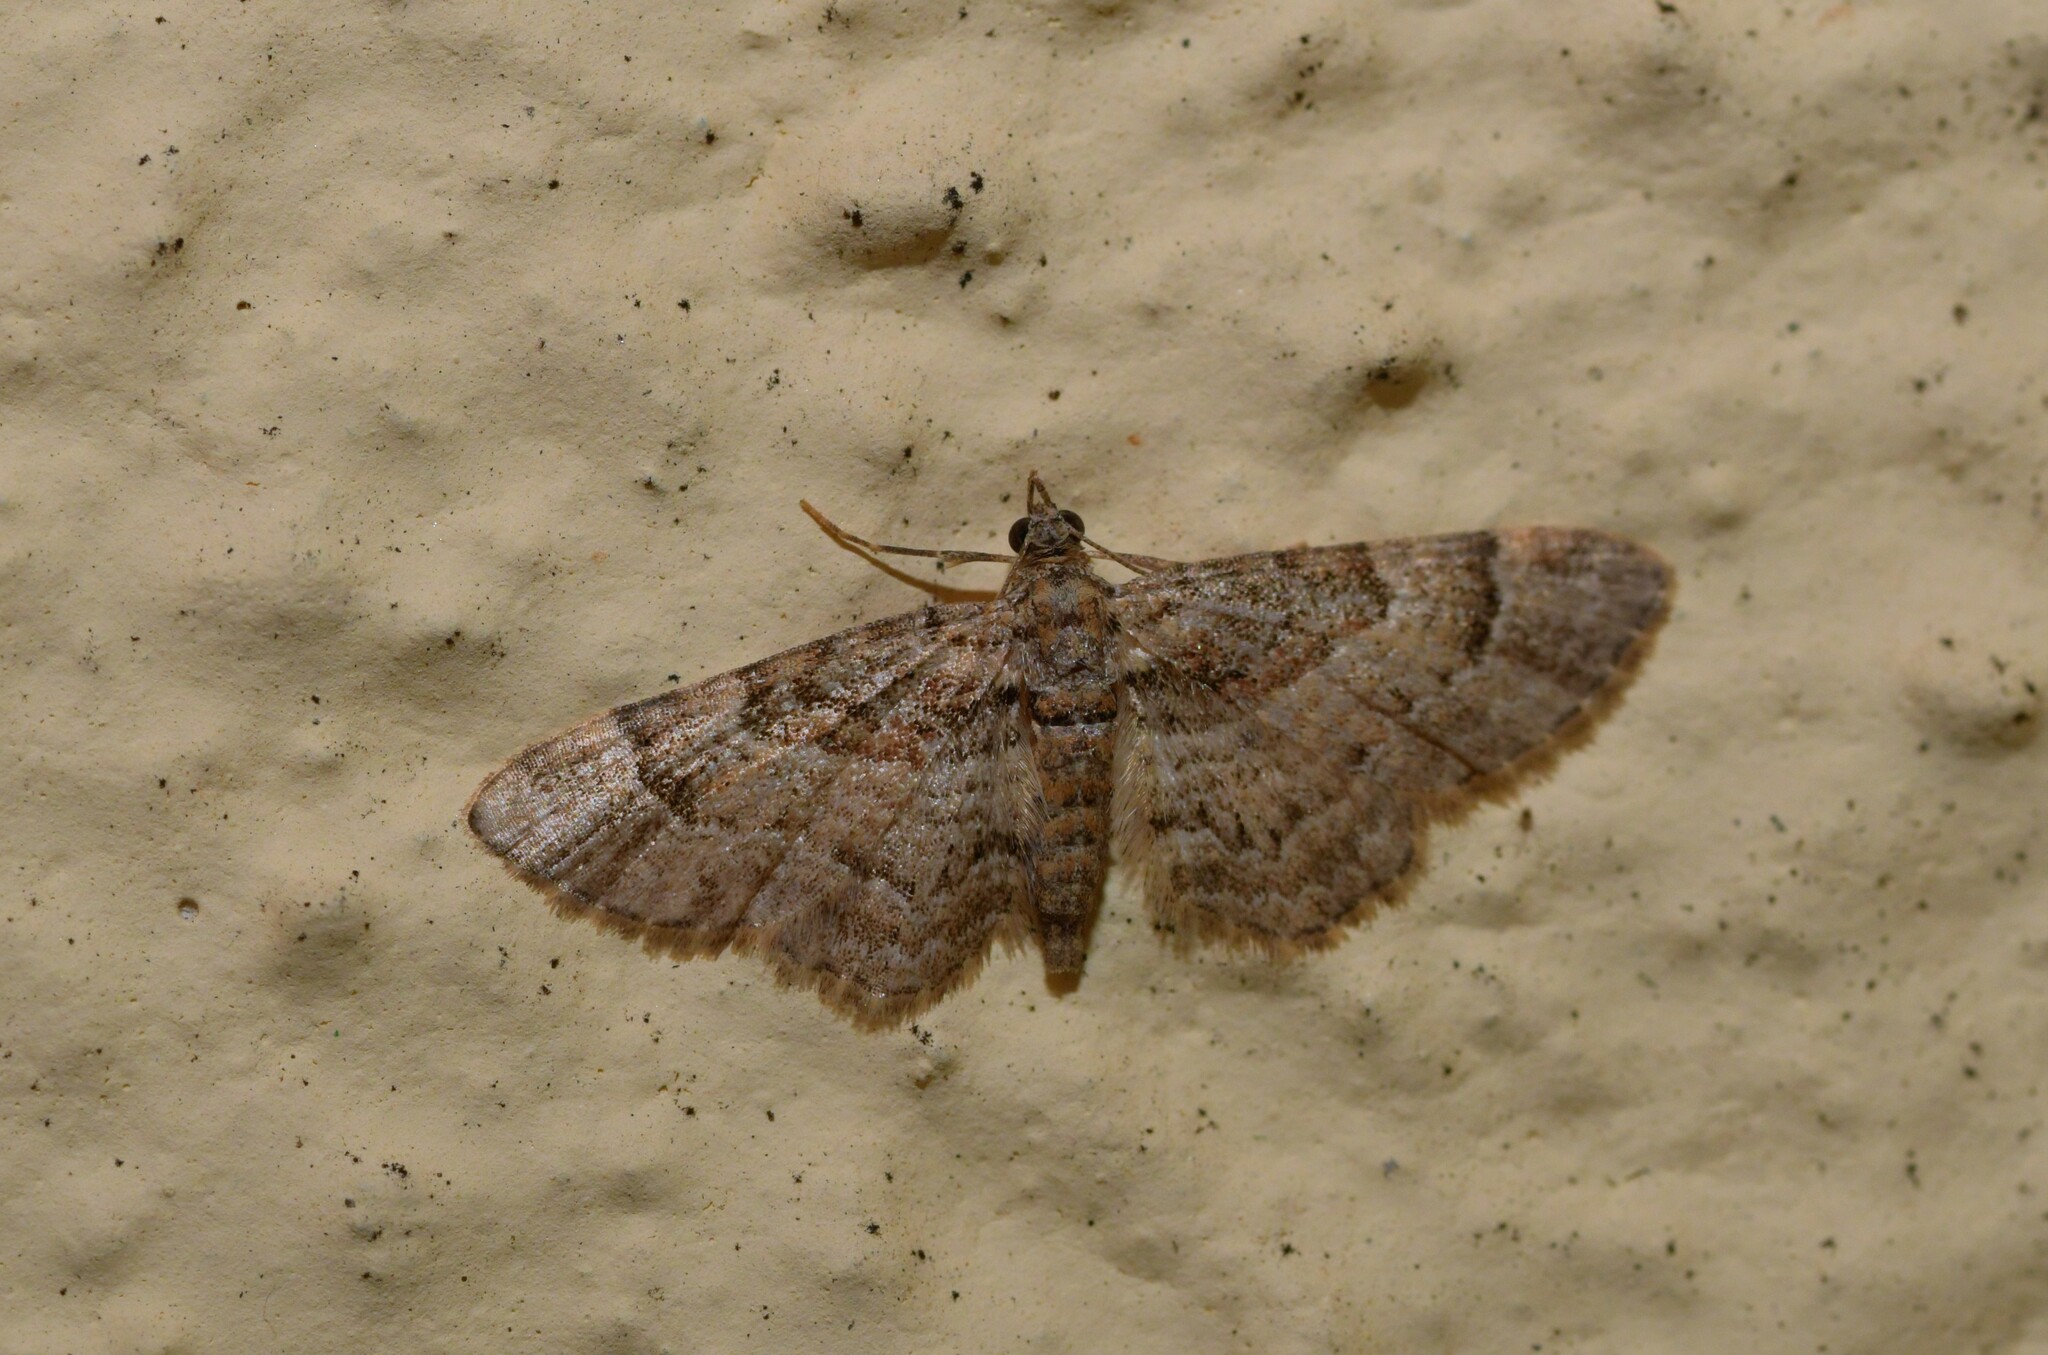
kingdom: Animalia
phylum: Arthropoda
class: Insecta
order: Lepidoptera
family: Geometridae
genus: Gymnoscelis
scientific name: Gymnoscelis rufifasciata
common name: Double-striped pug
